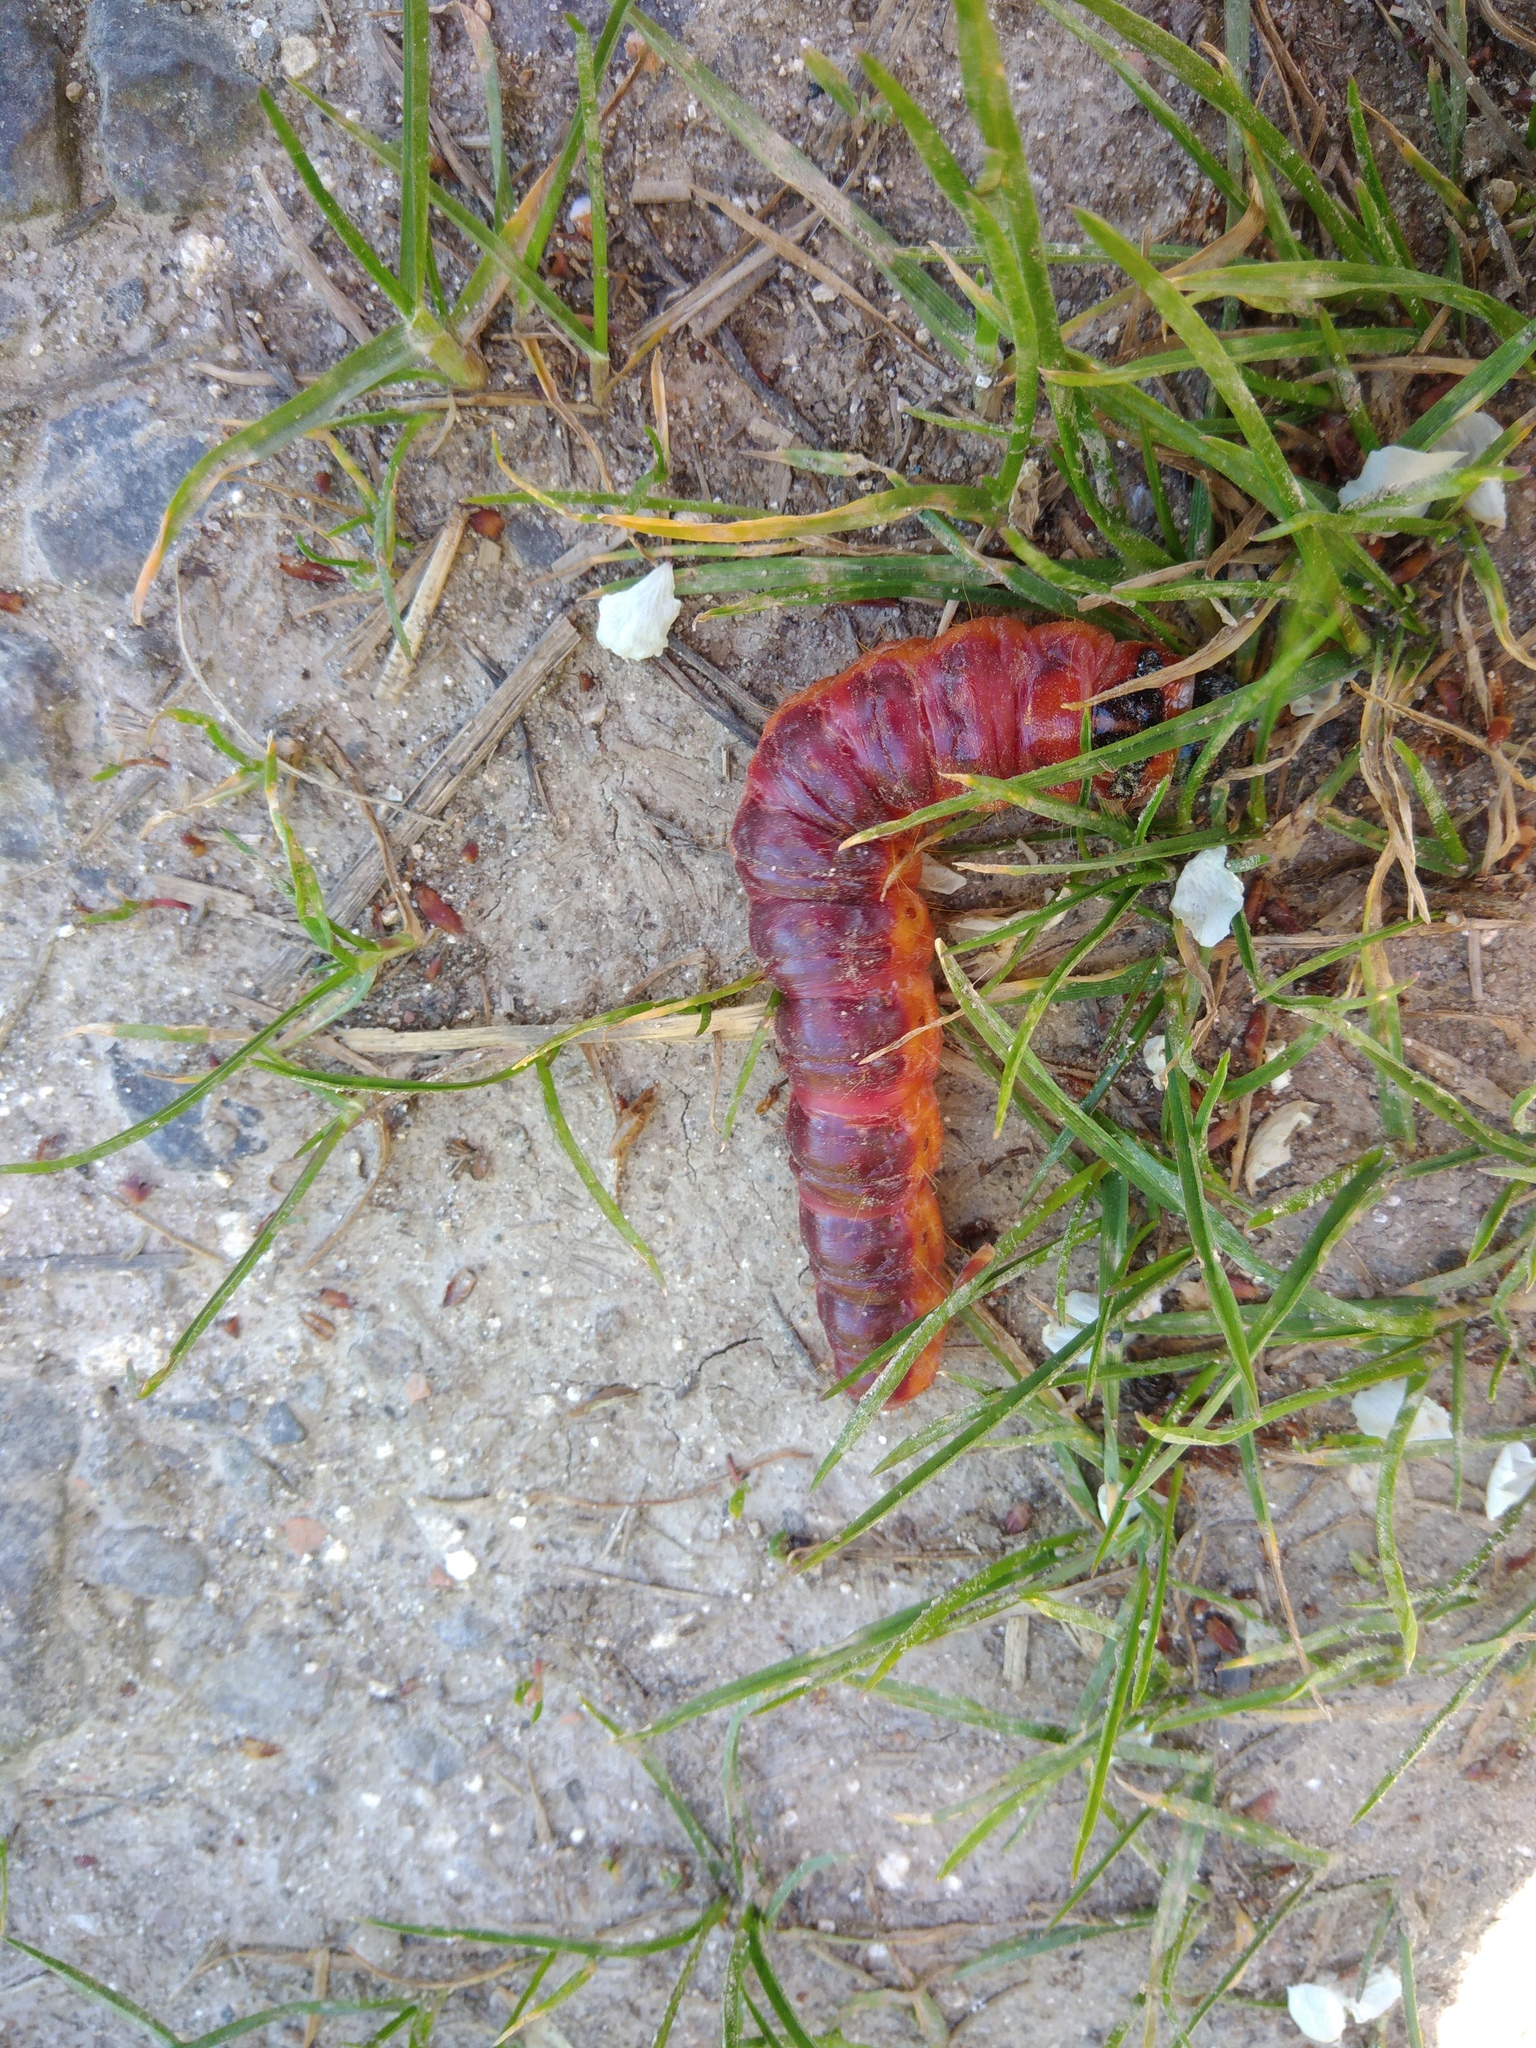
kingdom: Animalia
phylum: Arthropoda
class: Insecta
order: Lepidoptera
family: Cossidae
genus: Cossus
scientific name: Cossus cossus
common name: Goat moth
